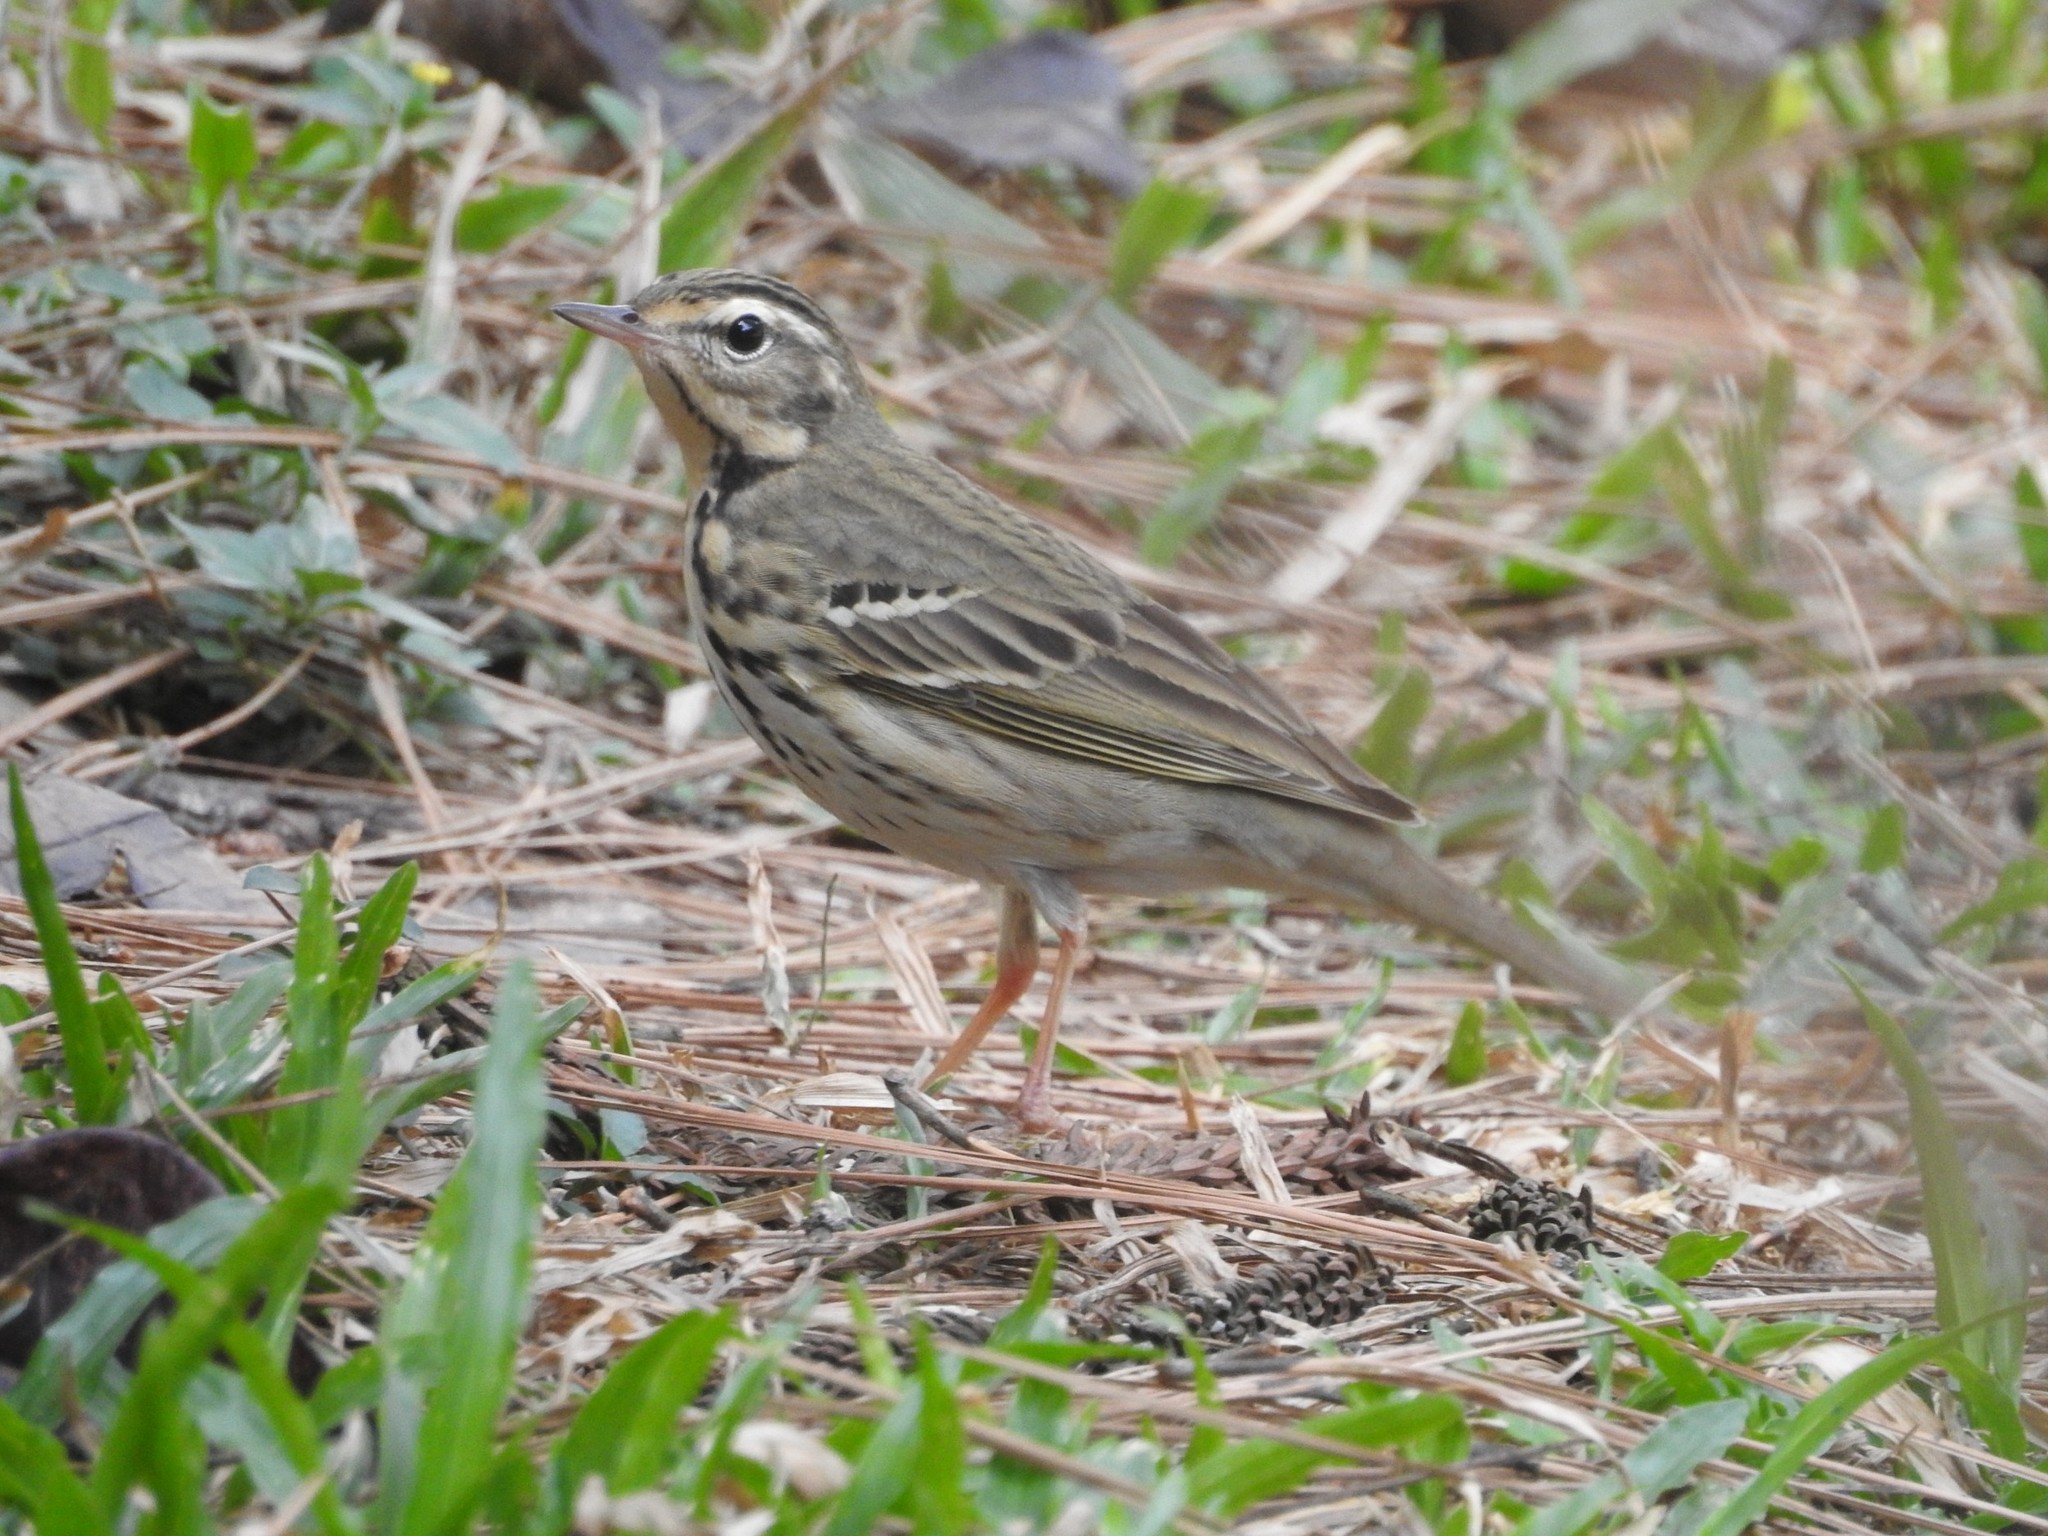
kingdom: Animalia
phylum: Chordata
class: Aves
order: Passeriformes
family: Motacillidae
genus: Anthus
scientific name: Anthus hodgsoni
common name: Olive-backed pipit
